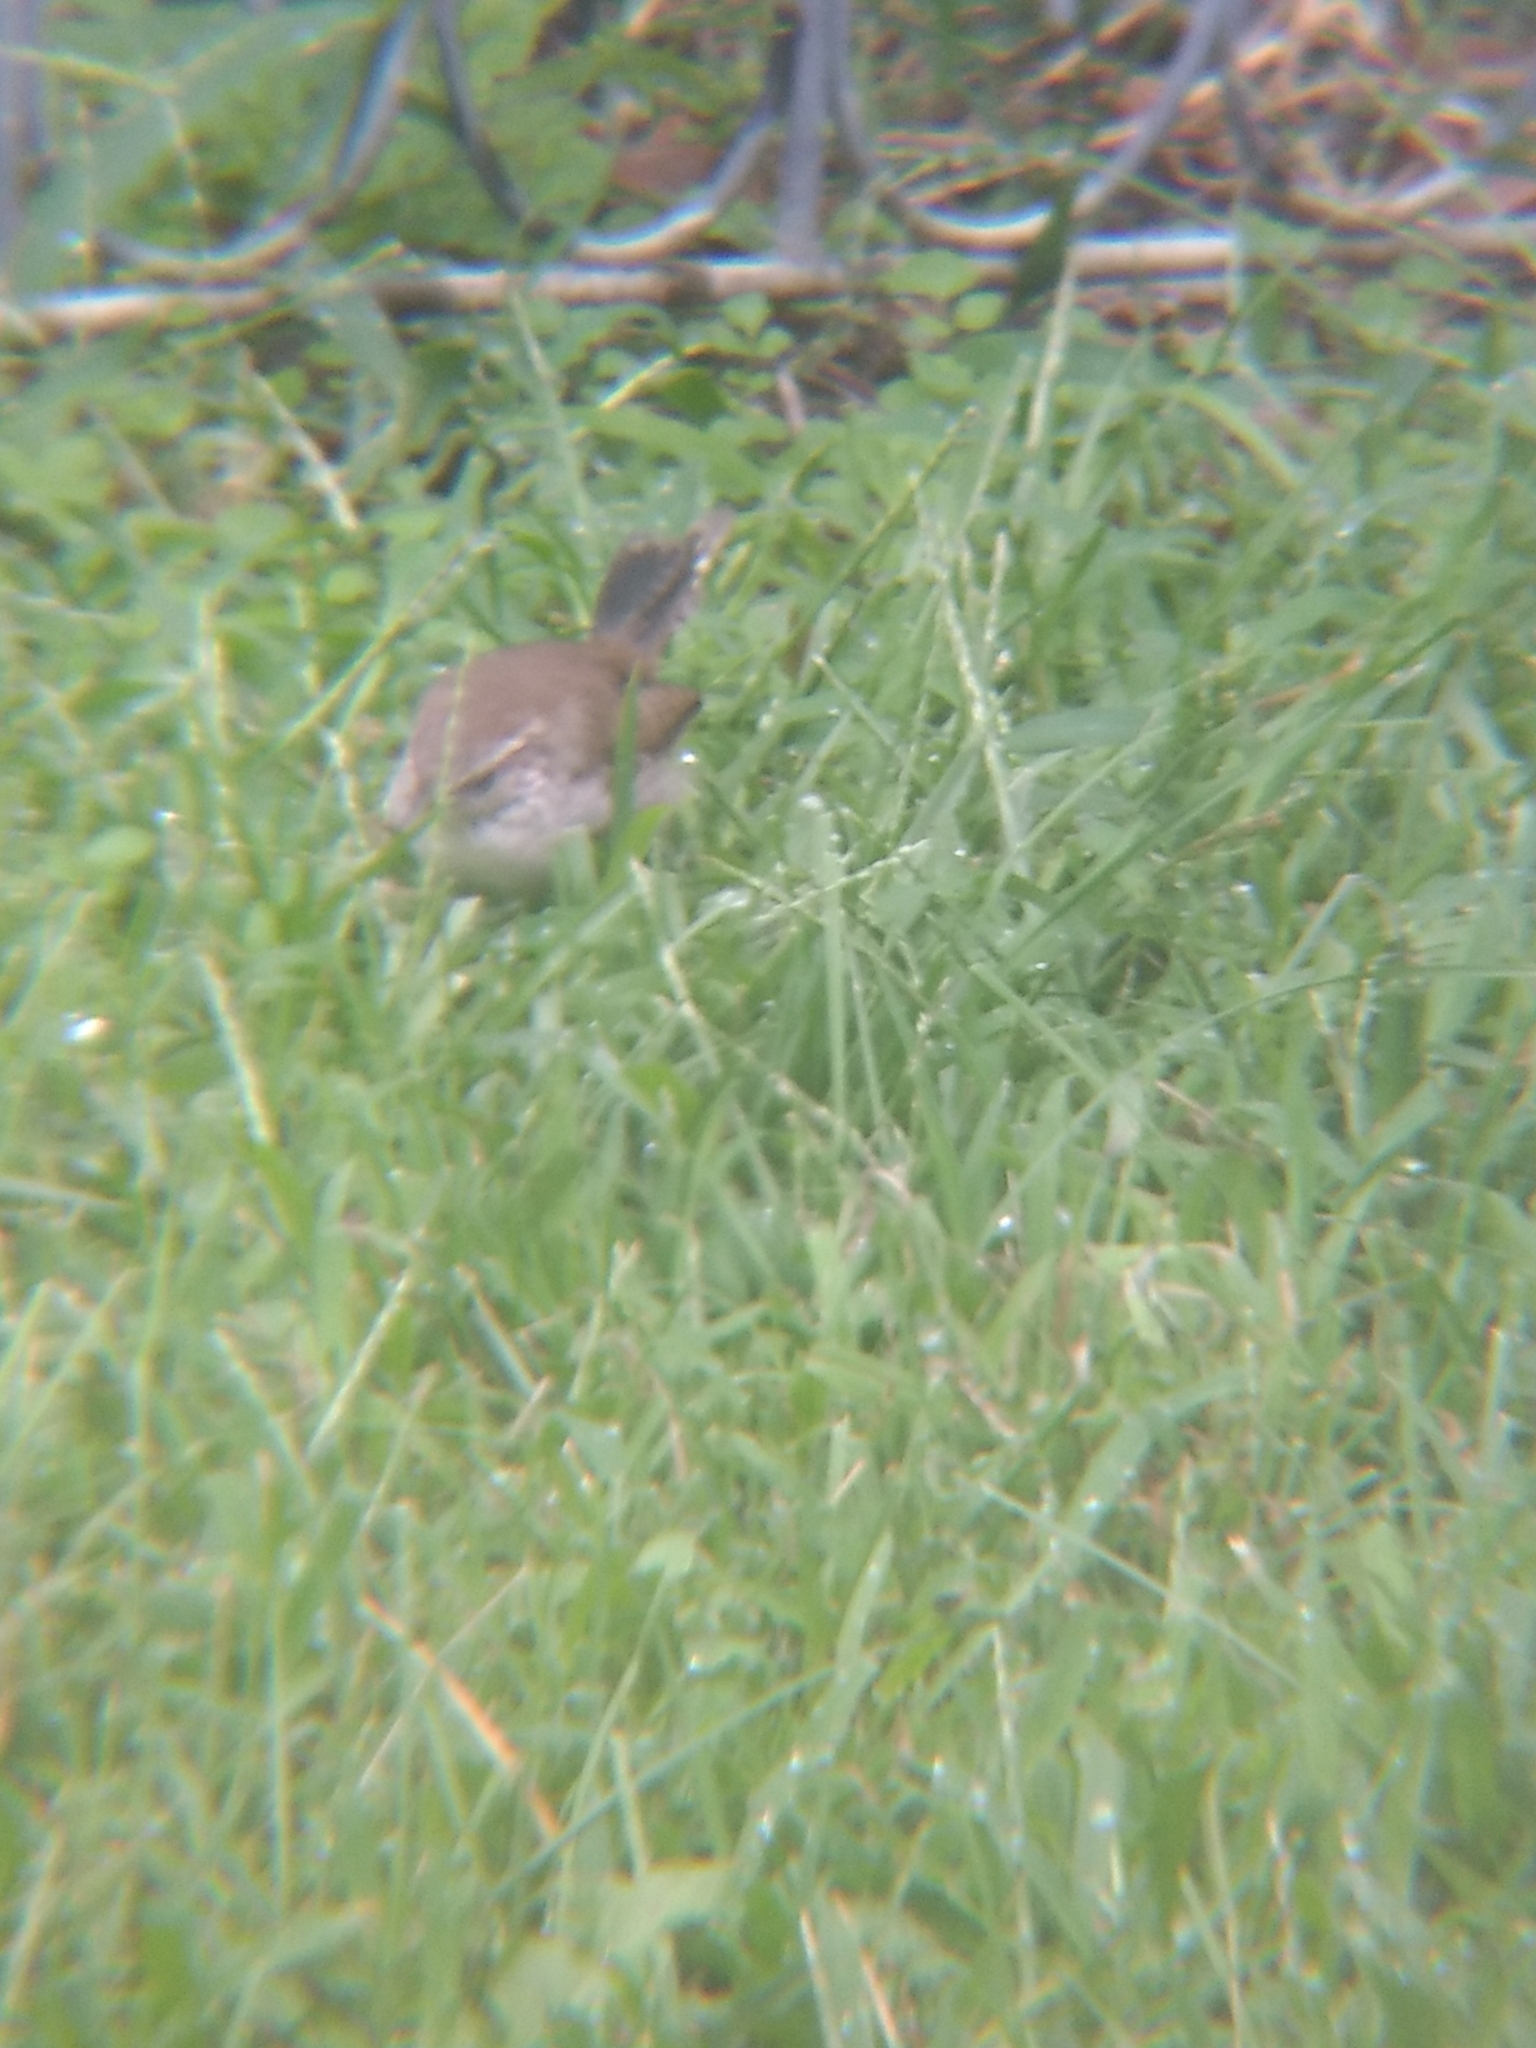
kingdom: Animalia
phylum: Chordata
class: Aves
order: Passeriformes
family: Troglodytidae
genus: Thryomanes
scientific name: Thryomanes bewickii
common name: Bewick's wren
